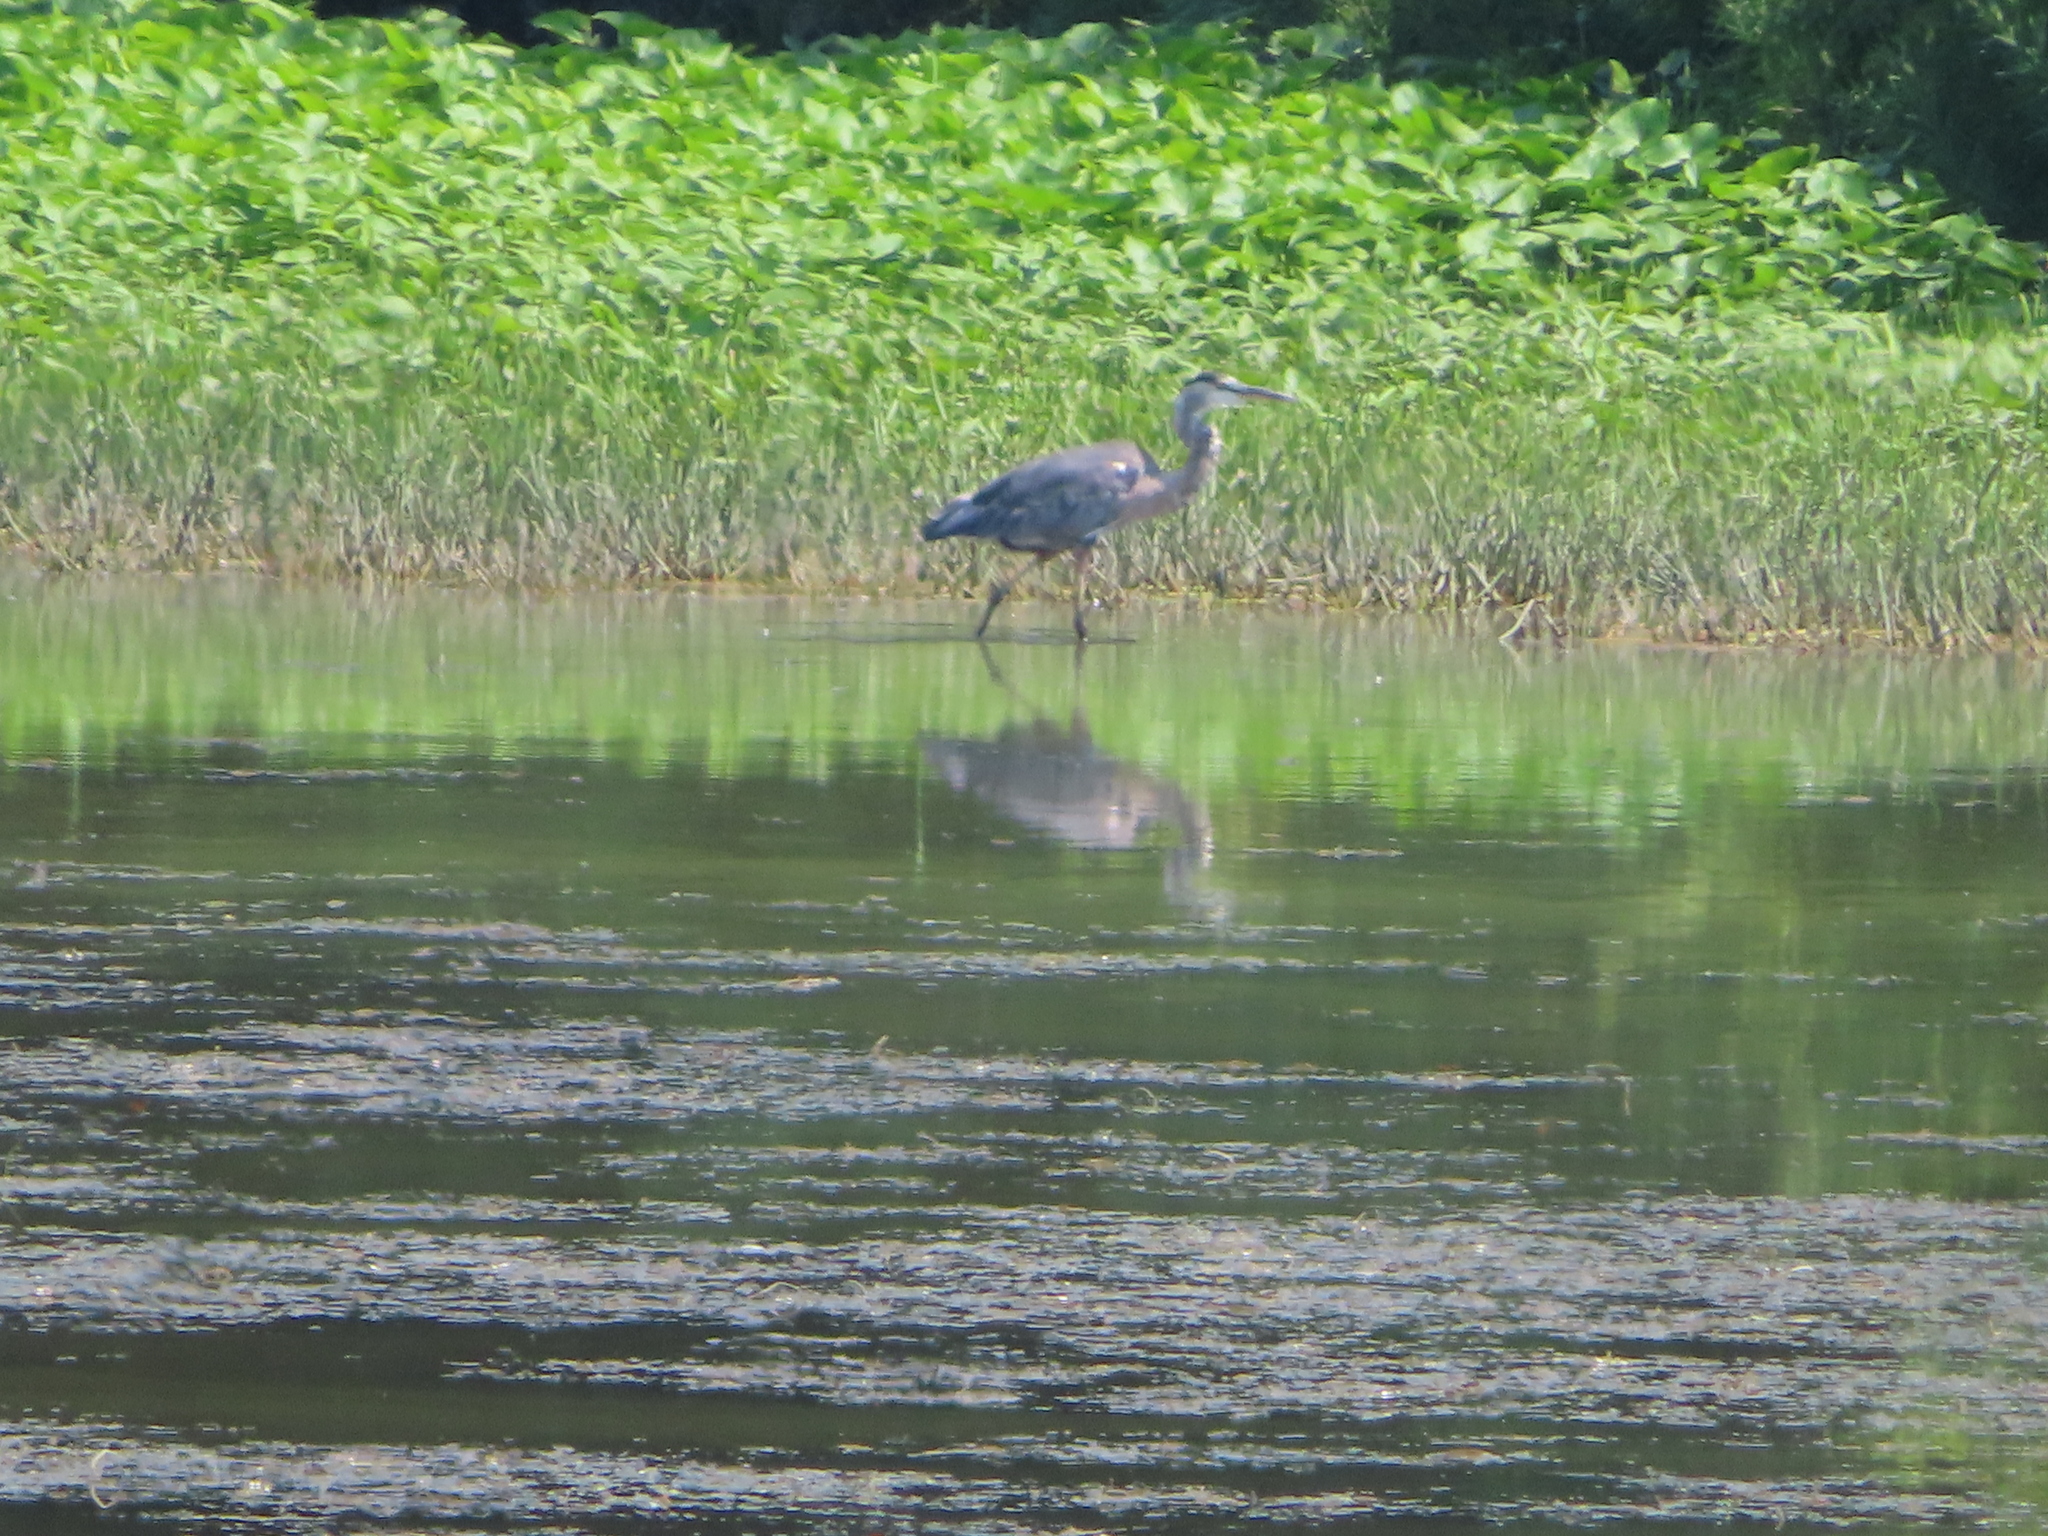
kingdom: Animalia
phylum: Chordata
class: Aves
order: Pelecaniformes
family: Ardeidae
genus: Ardea
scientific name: Ardea herodias
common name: Great blue heron
